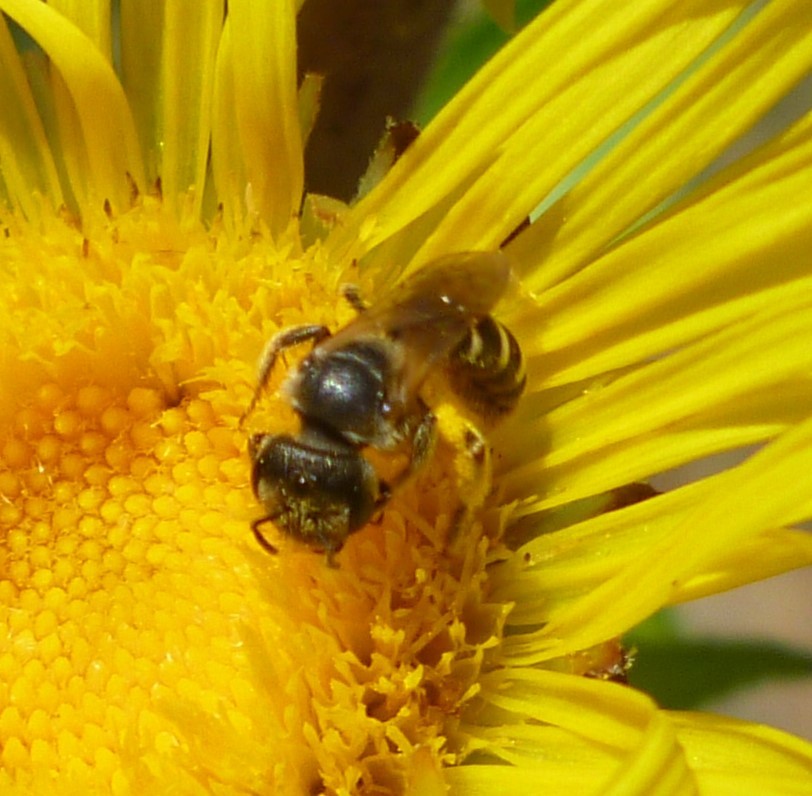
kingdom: Animalia
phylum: Arthropoda
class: Insecta
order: Hymenoptera
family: Halictidae
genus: Halictus
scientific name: Halictus ligatus
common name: Ligated furrow bee
